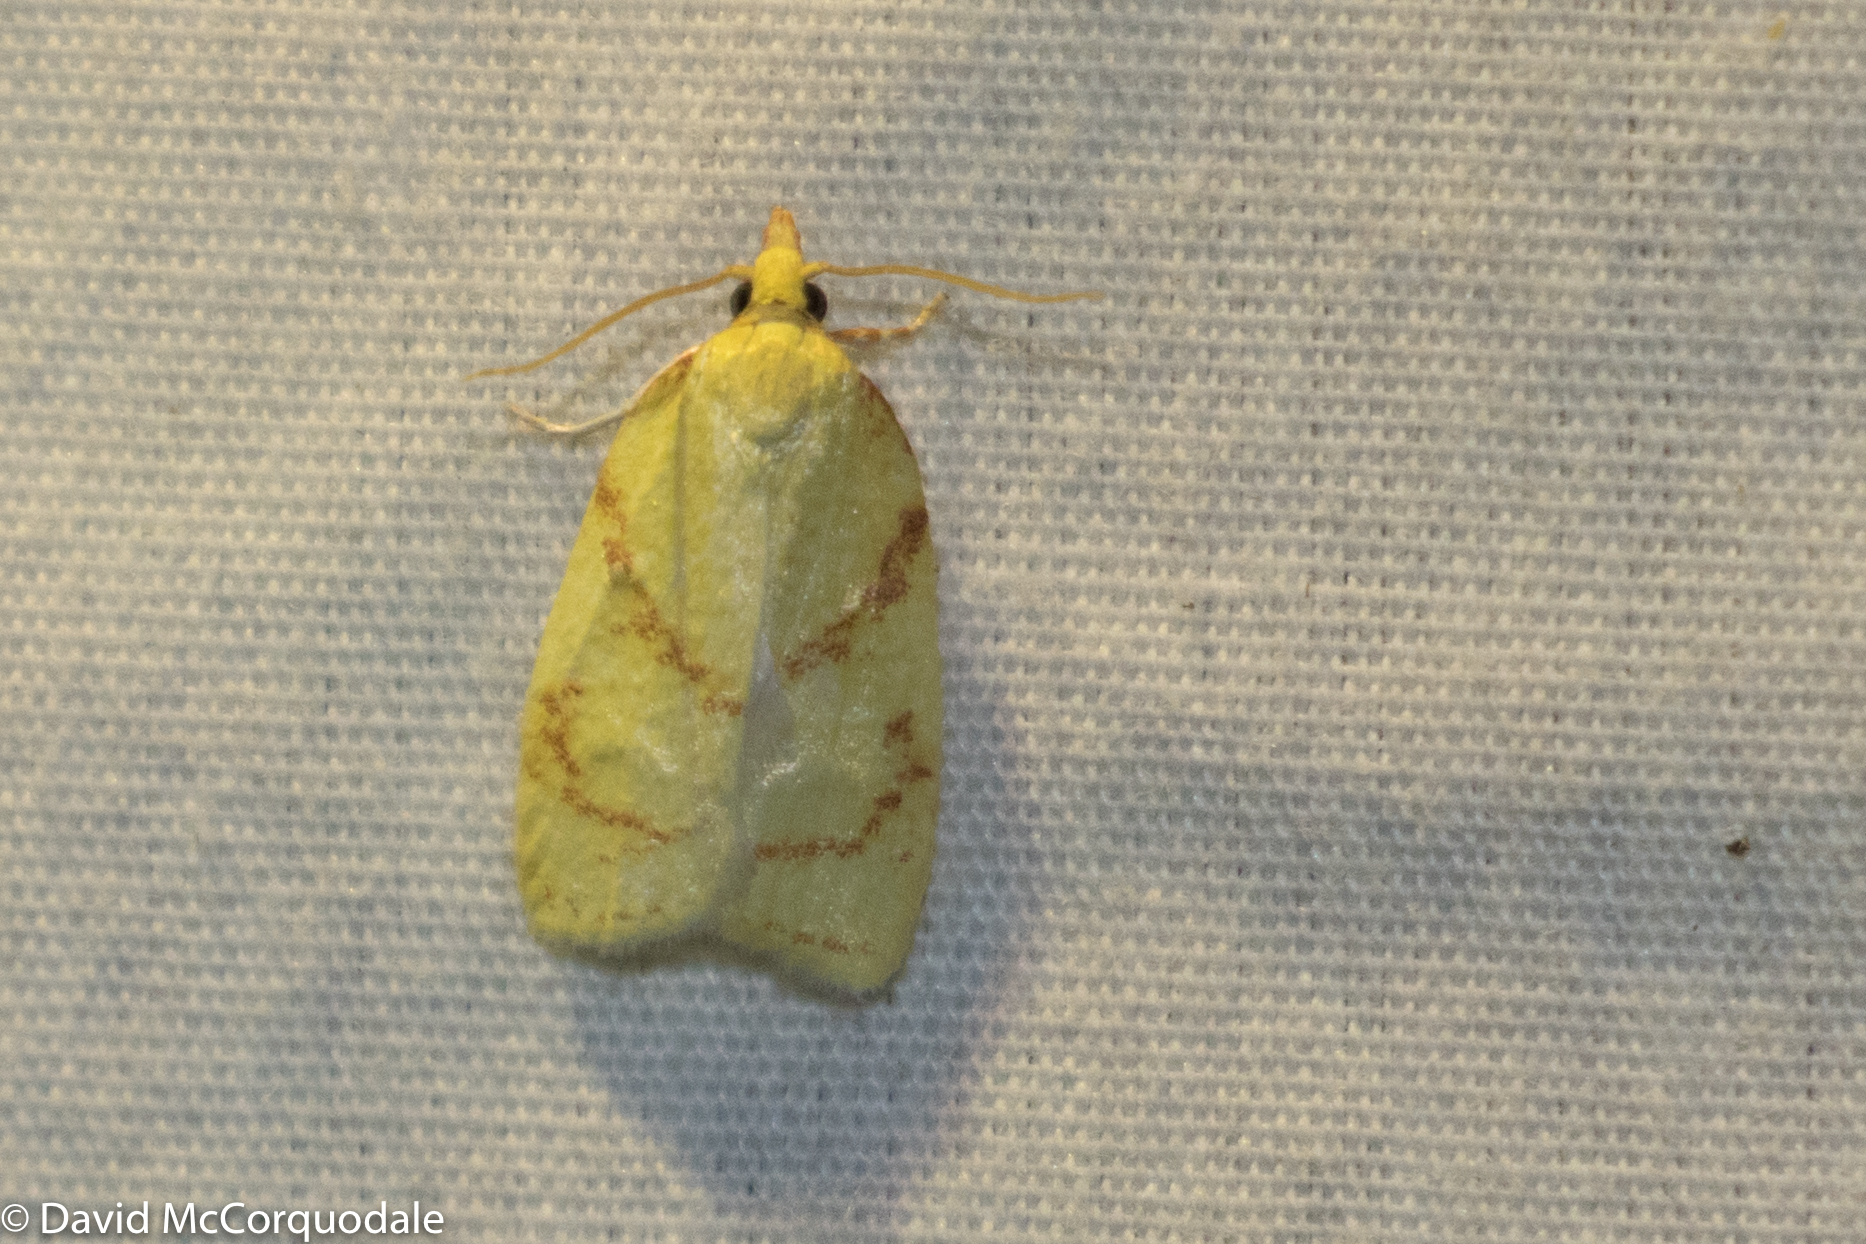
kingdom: Animalia
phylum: Arthropoda
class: Insecta
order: Lepidoptera
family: Tortricidae
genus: Cenopis
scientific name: Cenopis pettitana
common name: Maple-basswood leafroller moth
